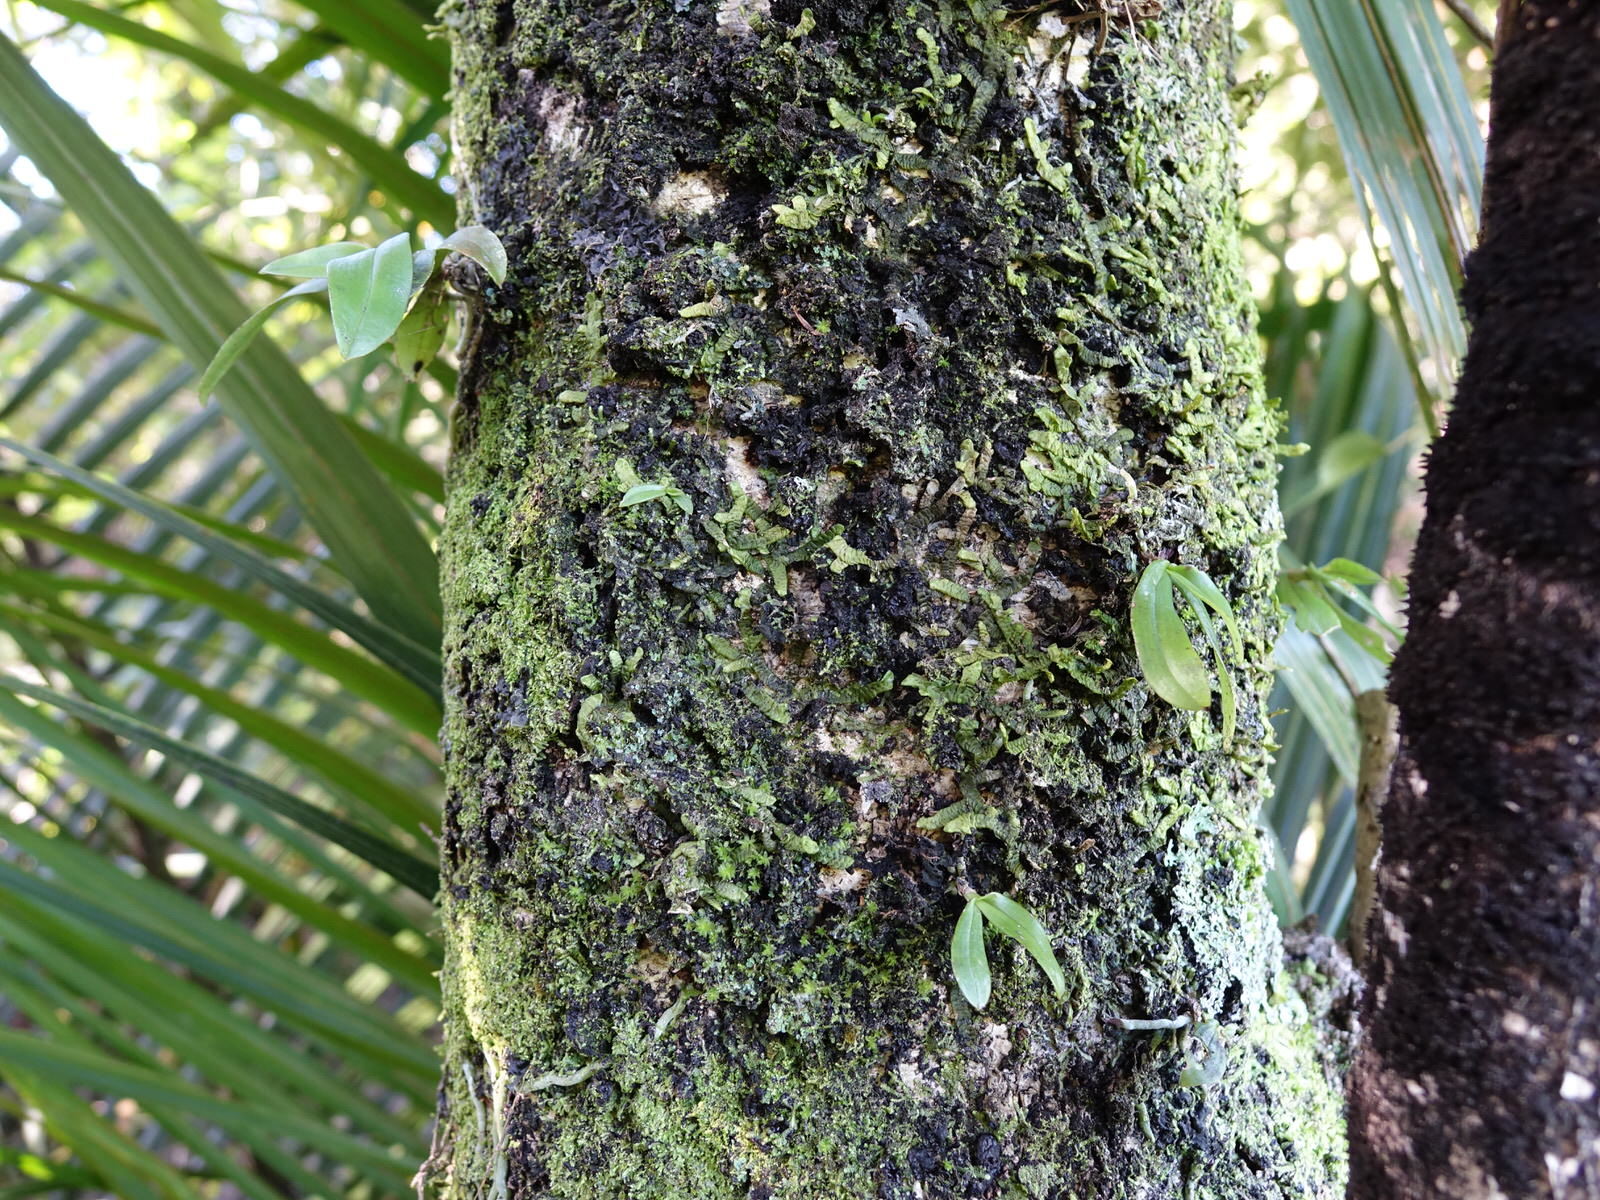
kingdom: Plantae
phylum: Tracheophyta
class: Liliopsida
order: Asparagales
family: Orchidaceae
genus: Drymoanthus
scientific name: Drymoanthus adversus
